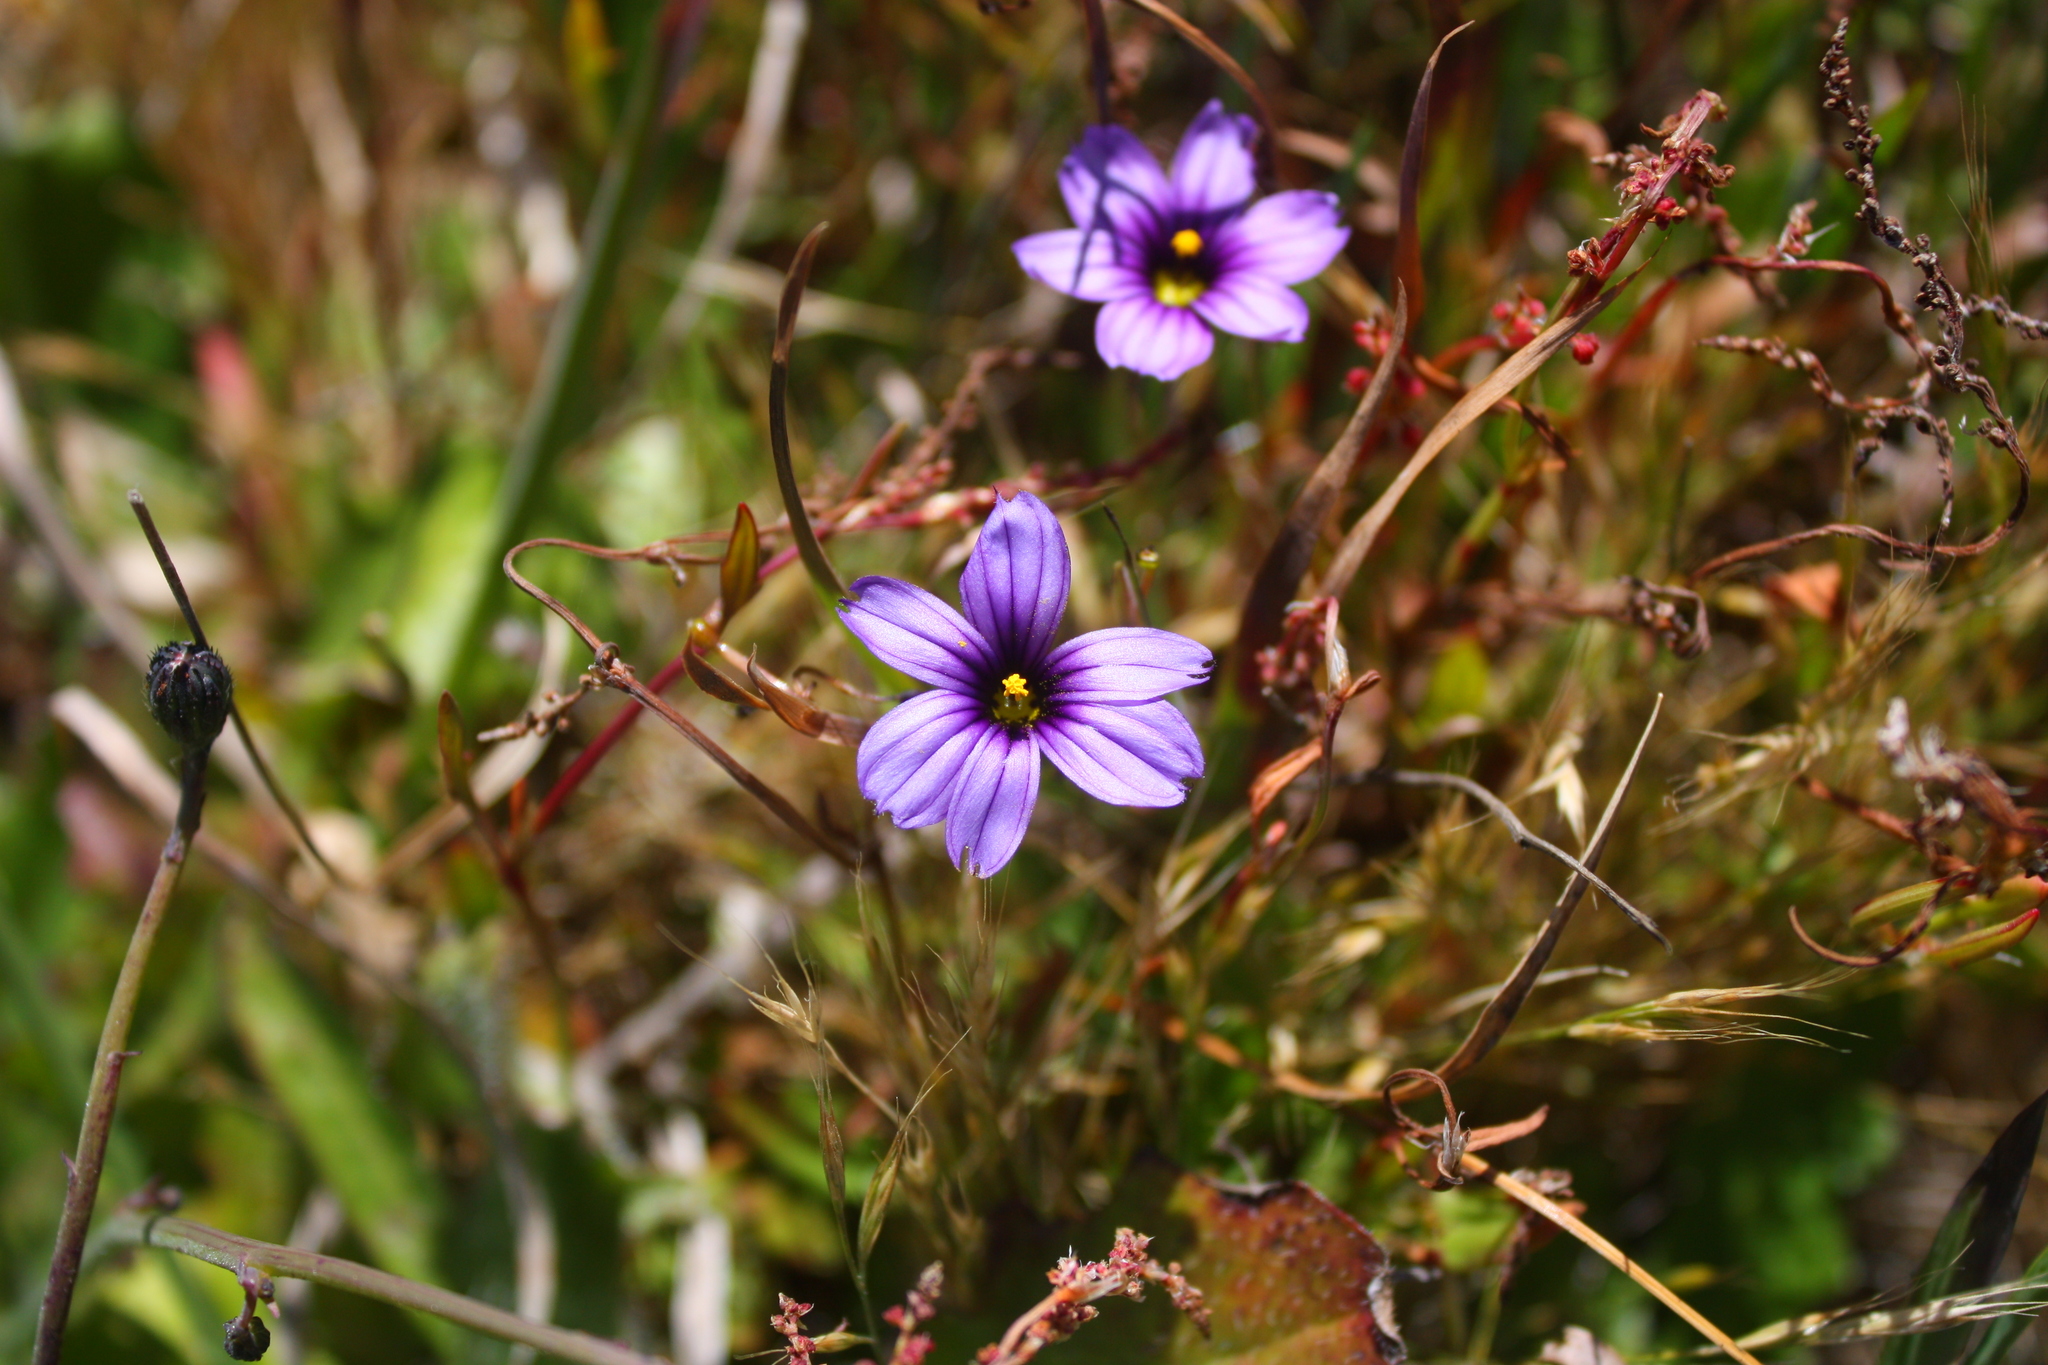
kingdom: Plantae
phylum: Tracheophyta
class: Liliopsida
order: Asparagales
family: Iridaceae
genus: Sisyrinchium
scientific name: Sisyrinchium bellum
